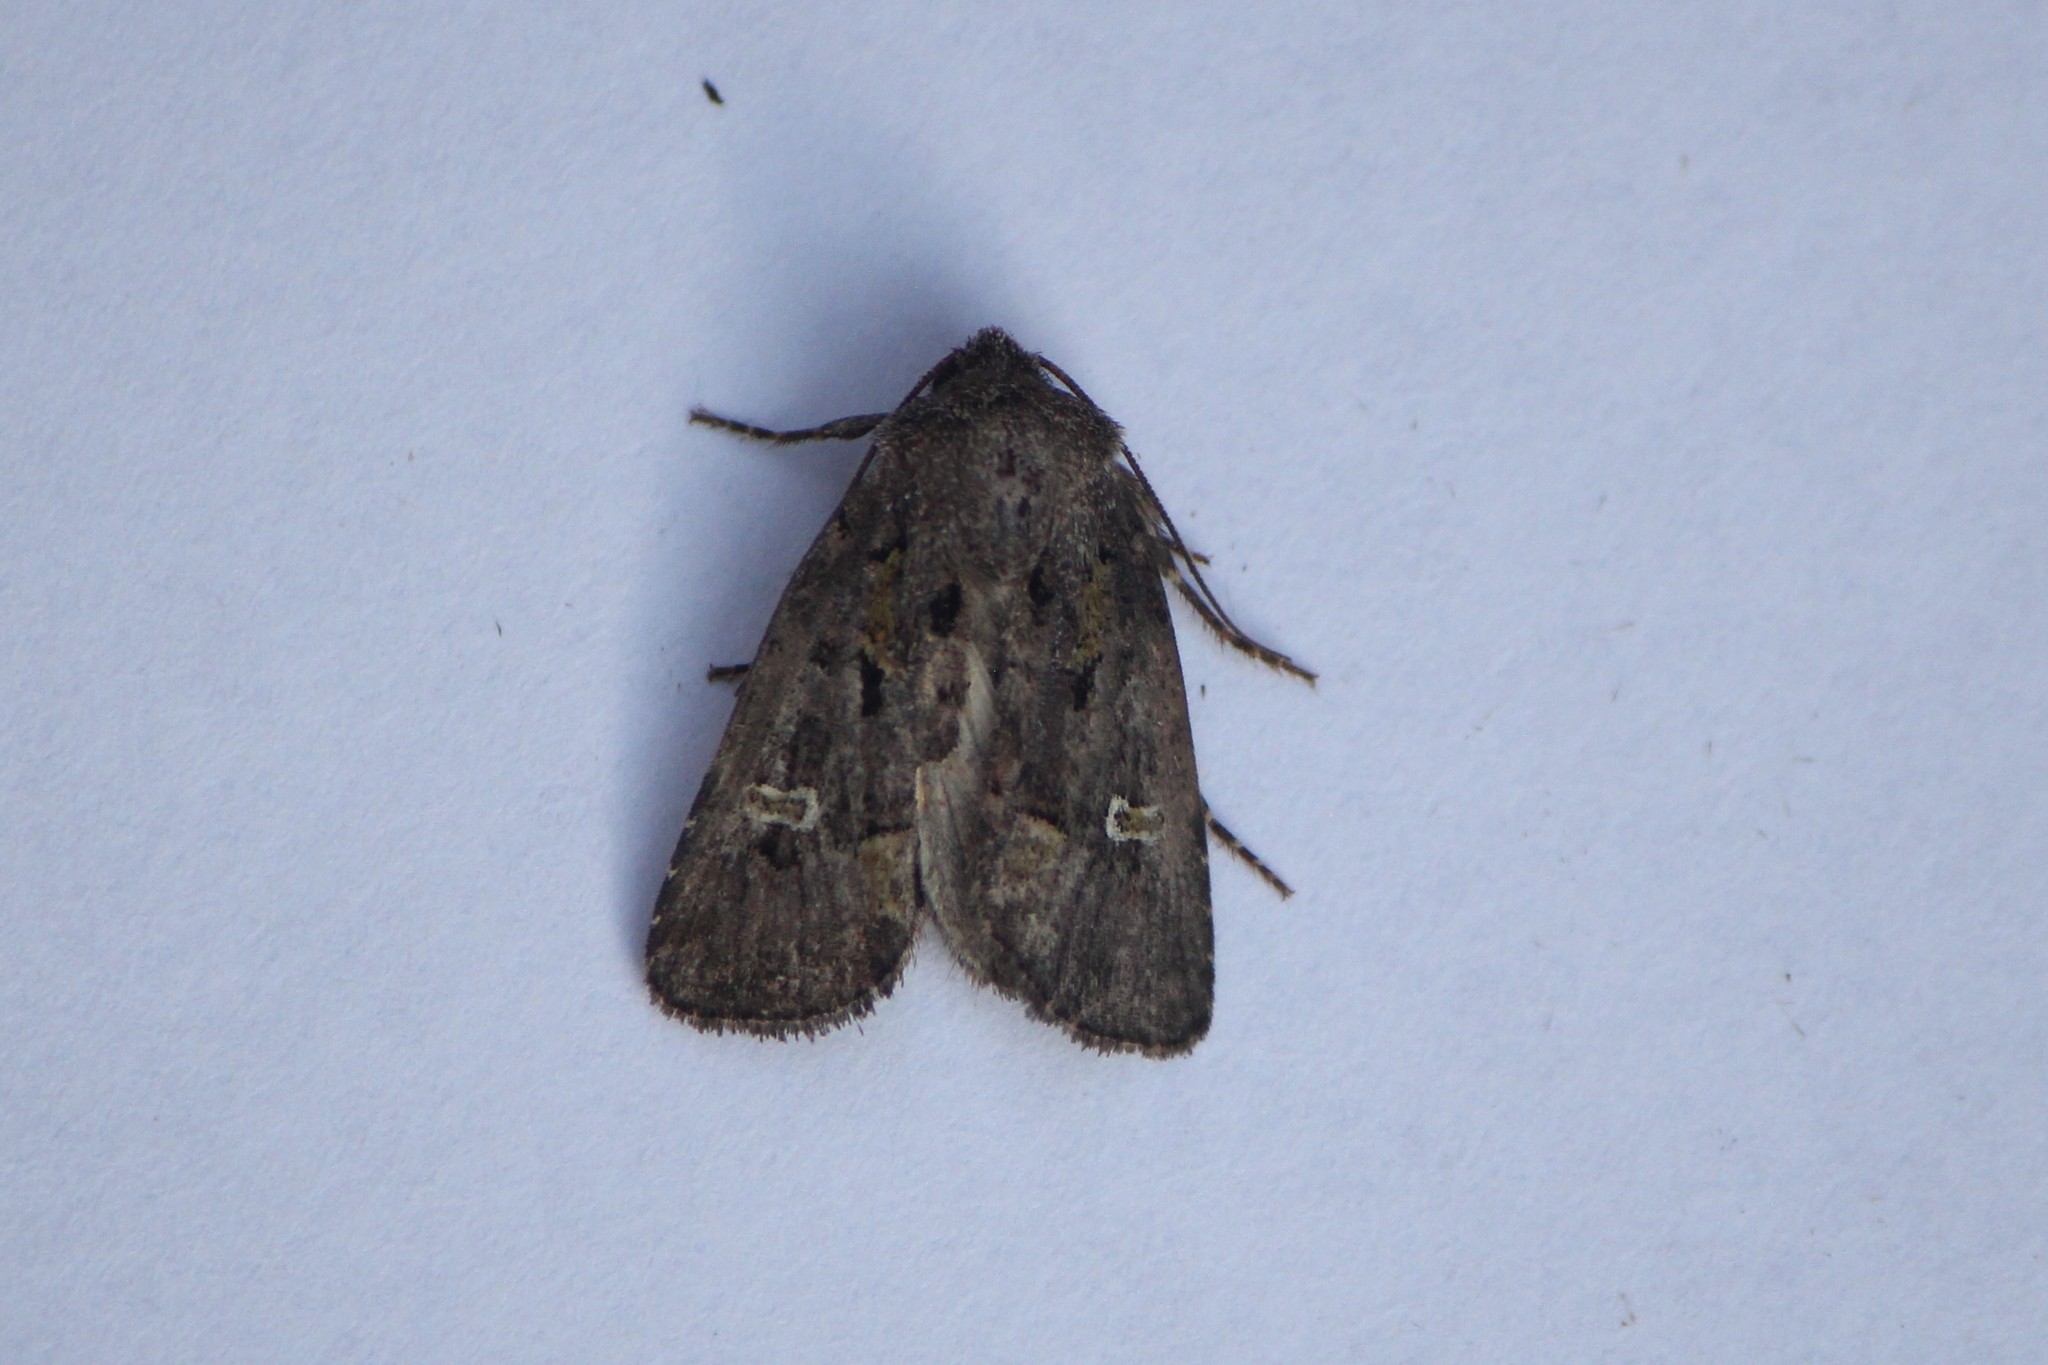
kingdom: Animalia
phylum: Arthropoda
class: Insecta
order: Lepidoptera
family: Noctuidae
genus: Lacinipolia
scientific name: Lacinipolia renigera
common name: Kidney-spotted minor
